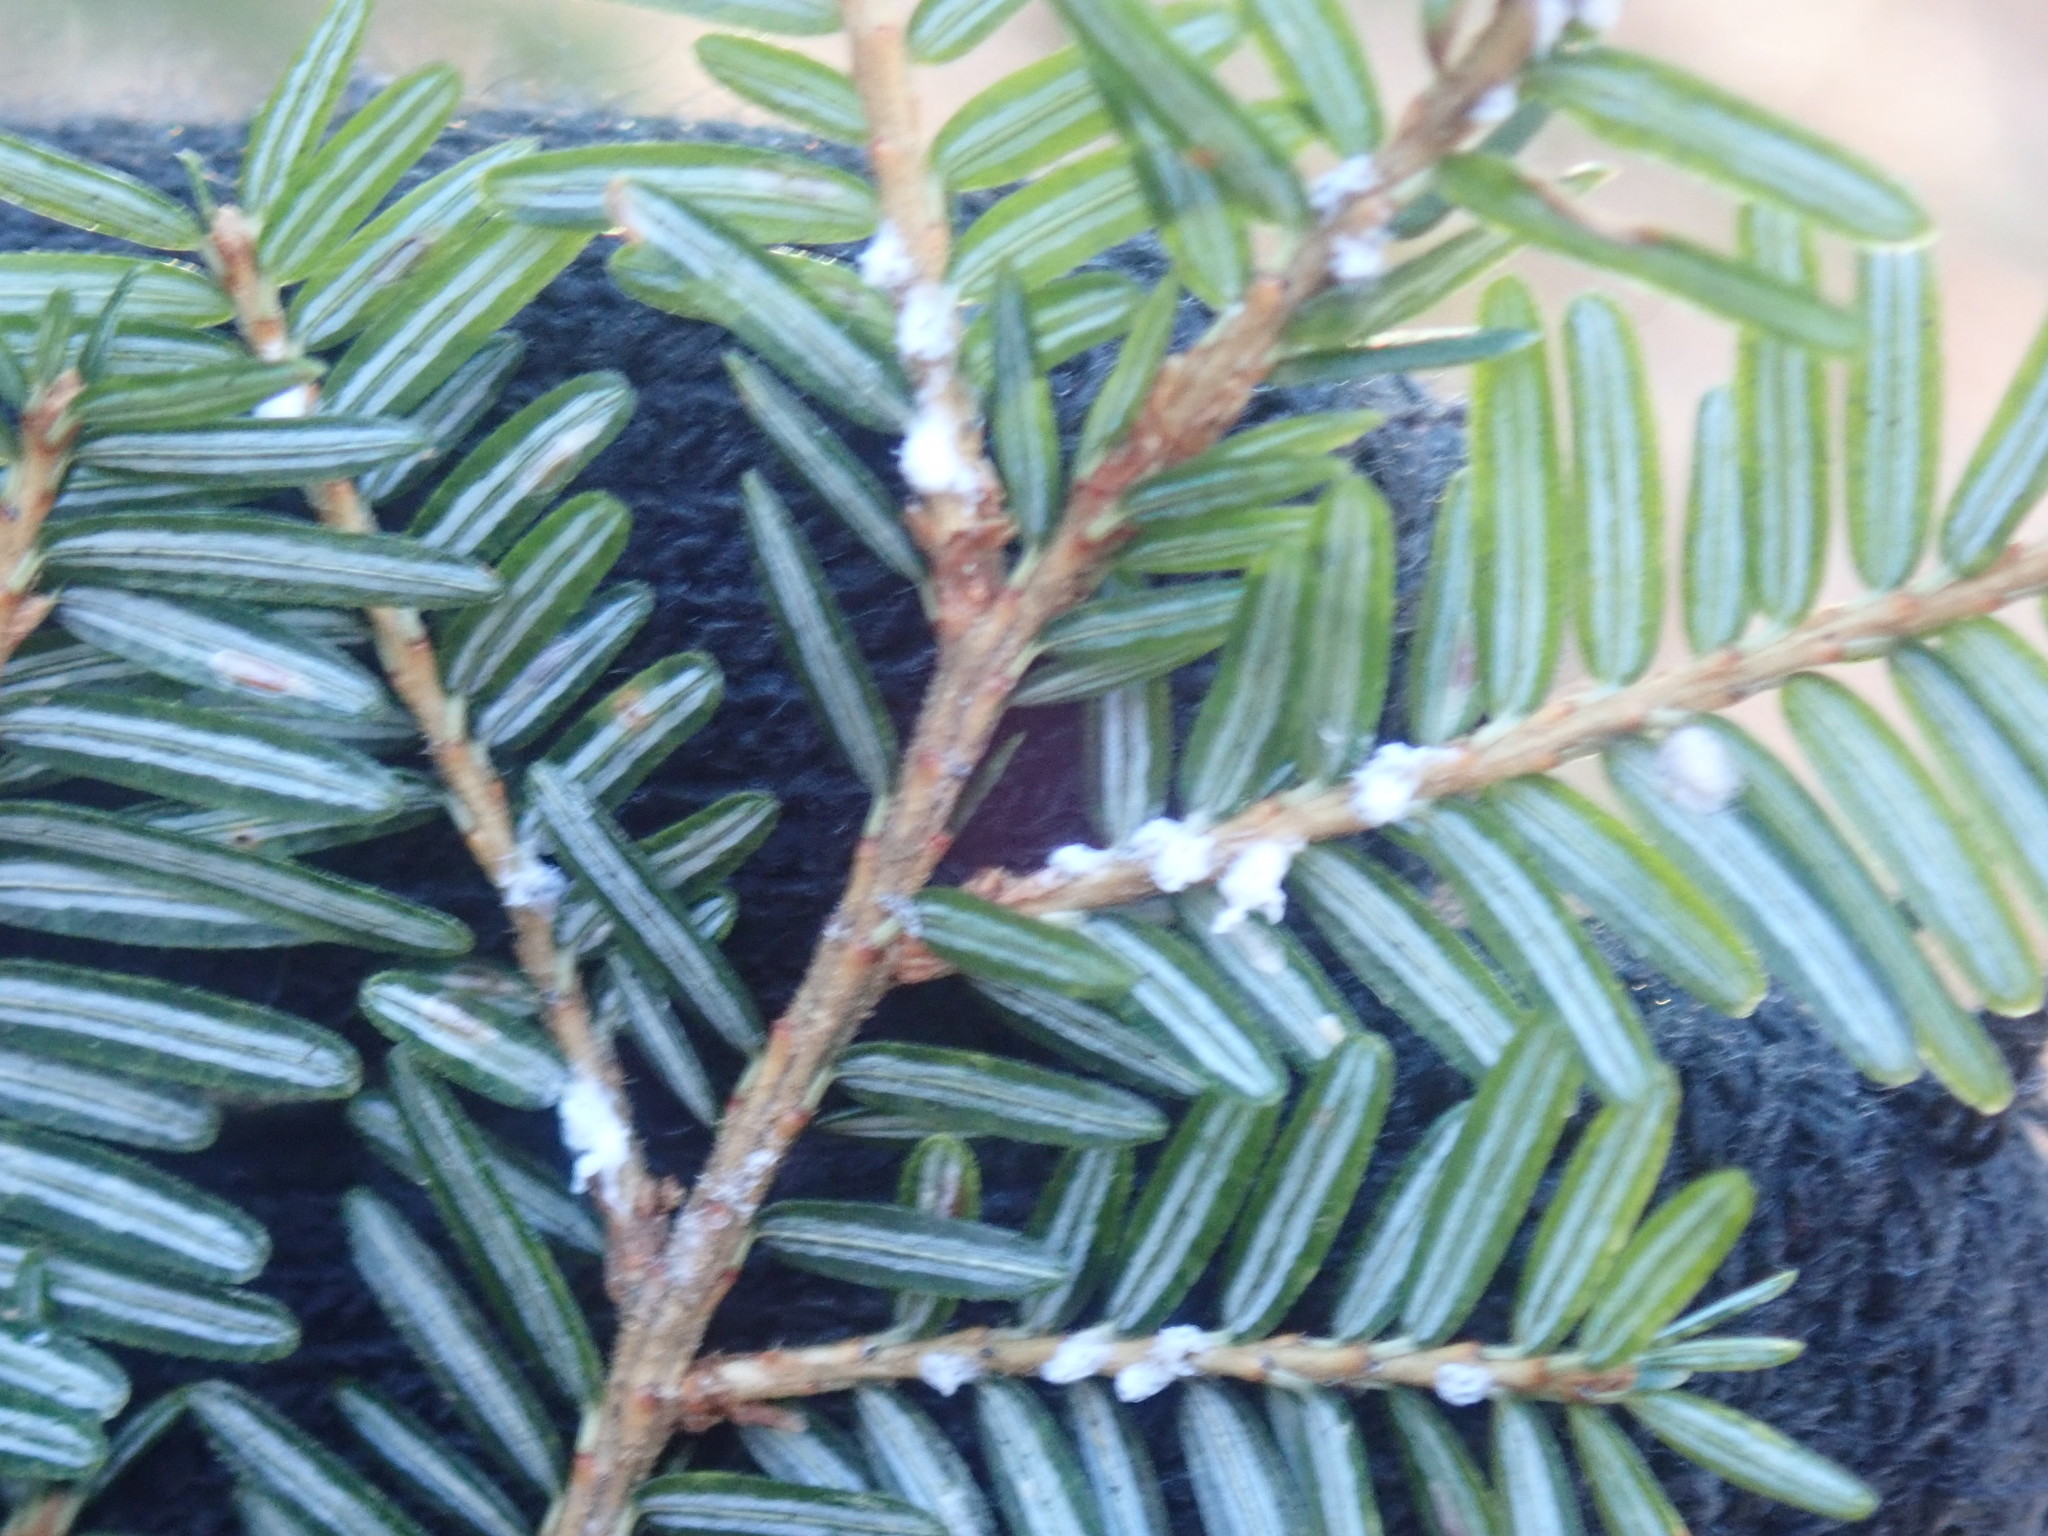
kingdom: Animalia
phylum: Arthropoda
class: Insecta
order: Hemiptera
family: Adelgidae
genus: Adelges
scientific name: Adelges tsugae
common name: Hemlock woolly adelgid
